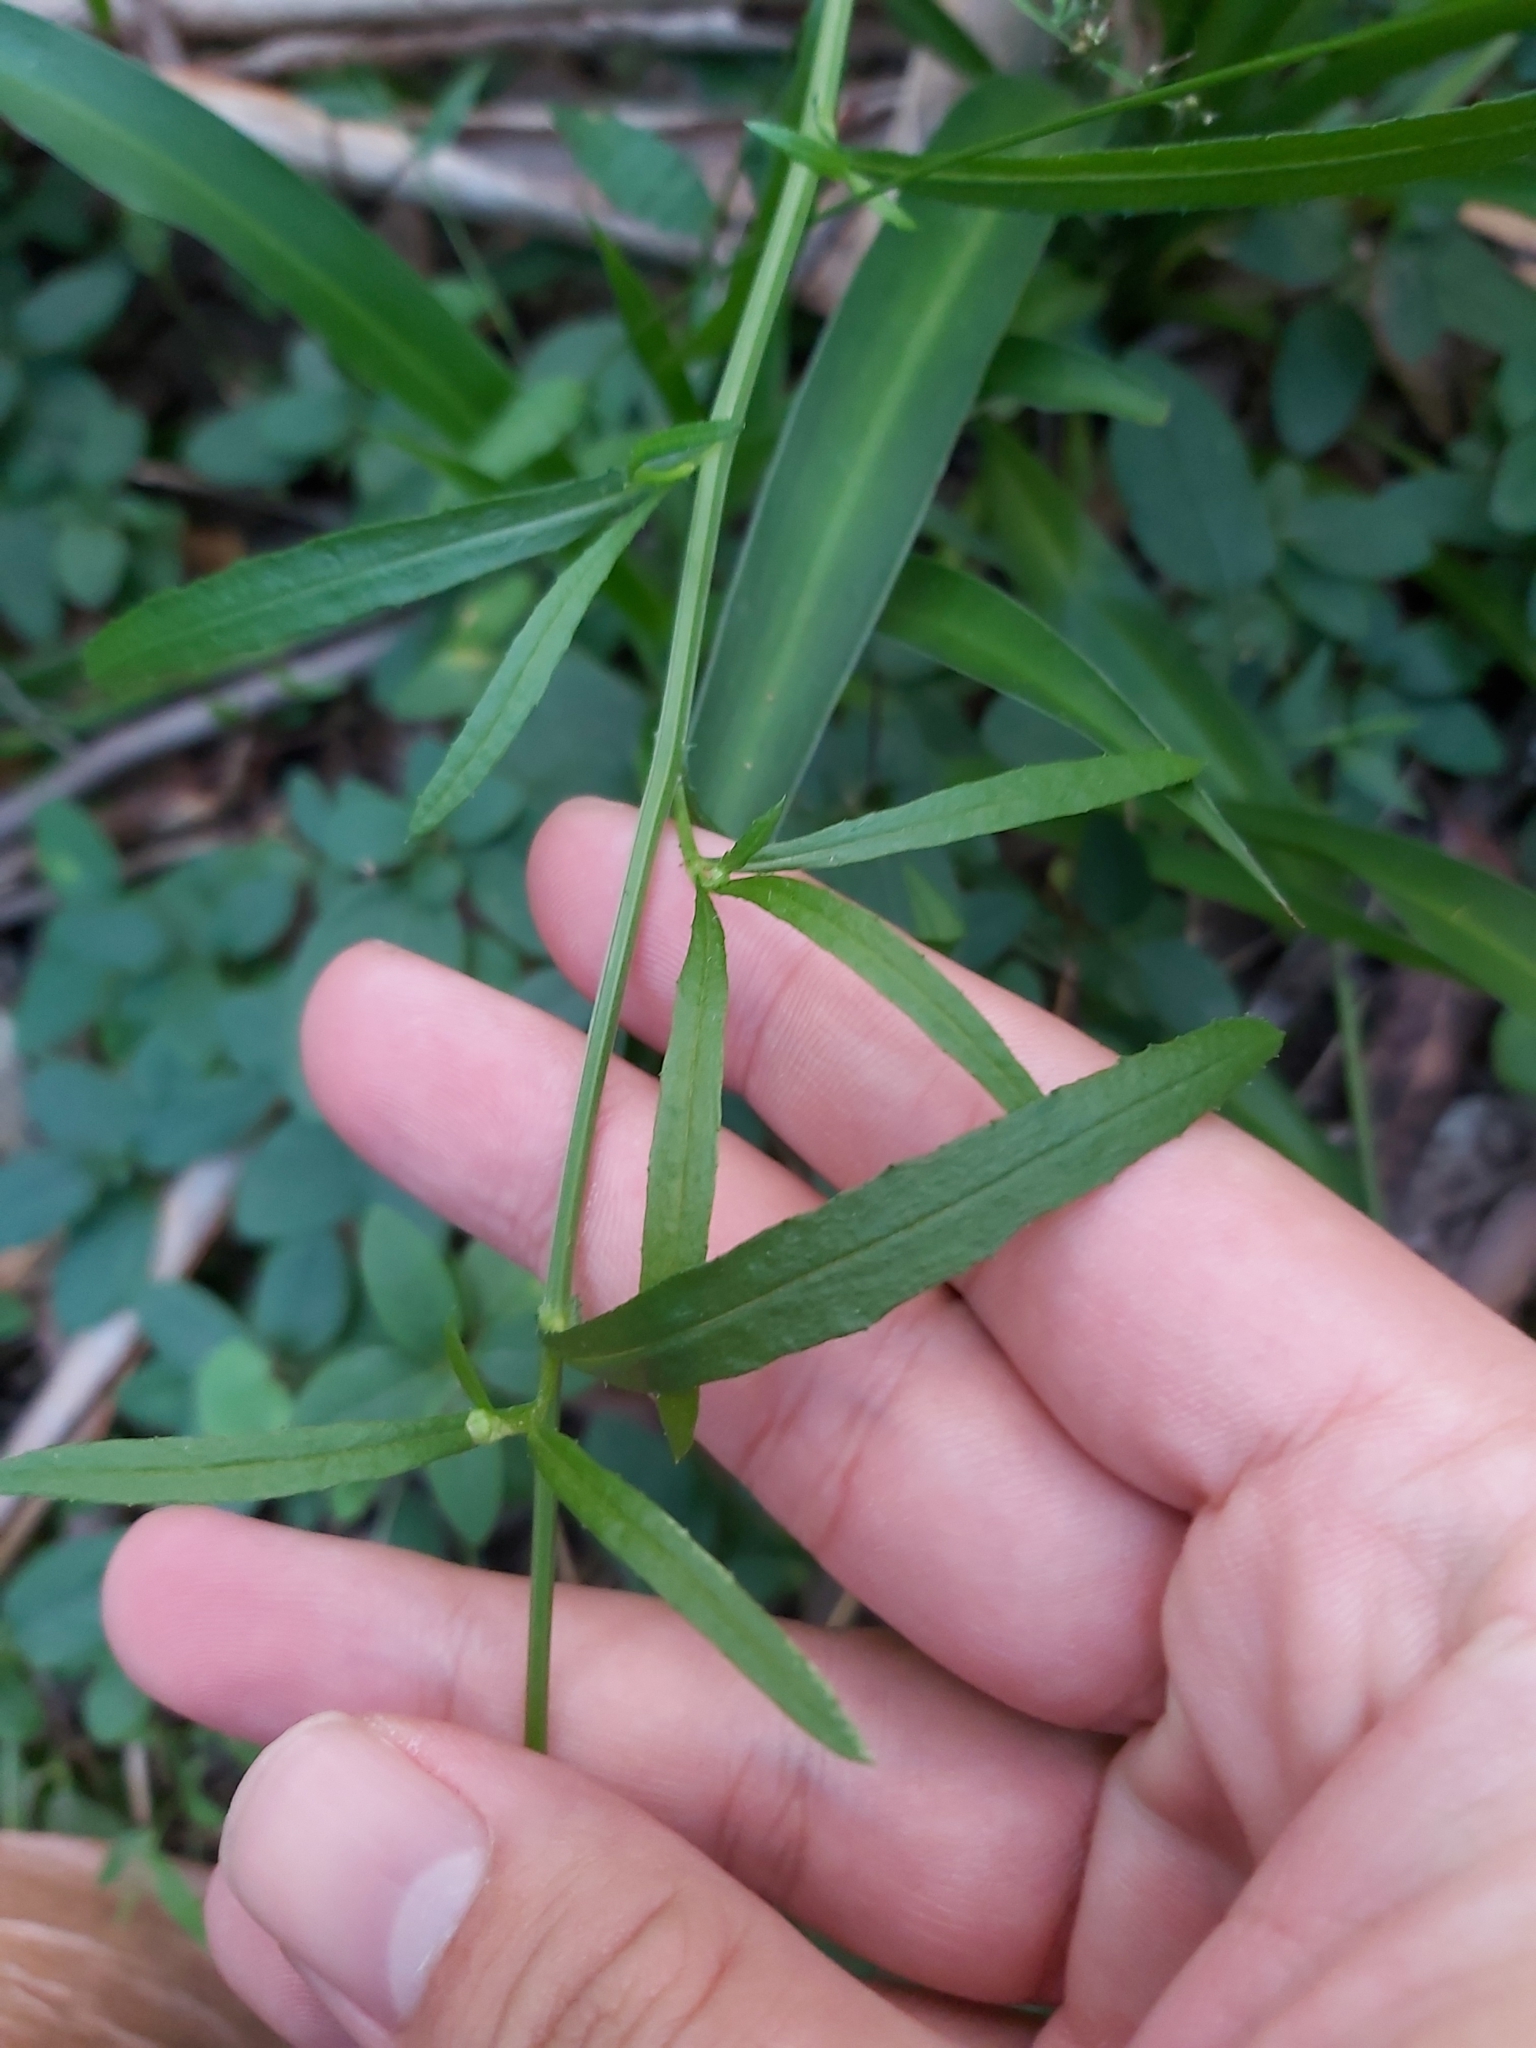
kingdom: Plantae
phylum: Tracheophyta
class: Magnoliopsida
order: Asterales
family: Asteraceae
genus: Senecio
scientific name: Senecio madagascariensis
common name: Madagascar ragwort
